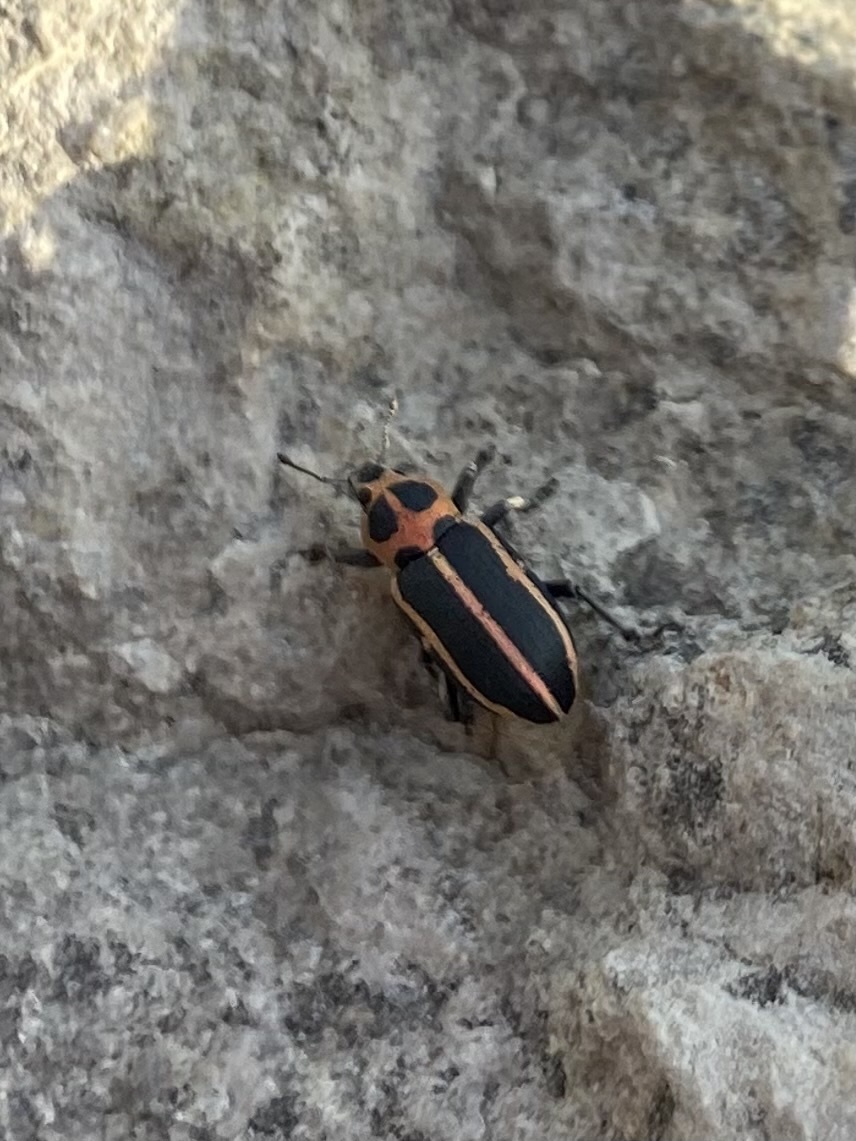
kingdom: Animalia
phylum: Arthropoda
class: Insecta
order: Coleoptera
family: Curculionidae
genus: Eudiagogus
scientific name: Eudiagogus pulcher
